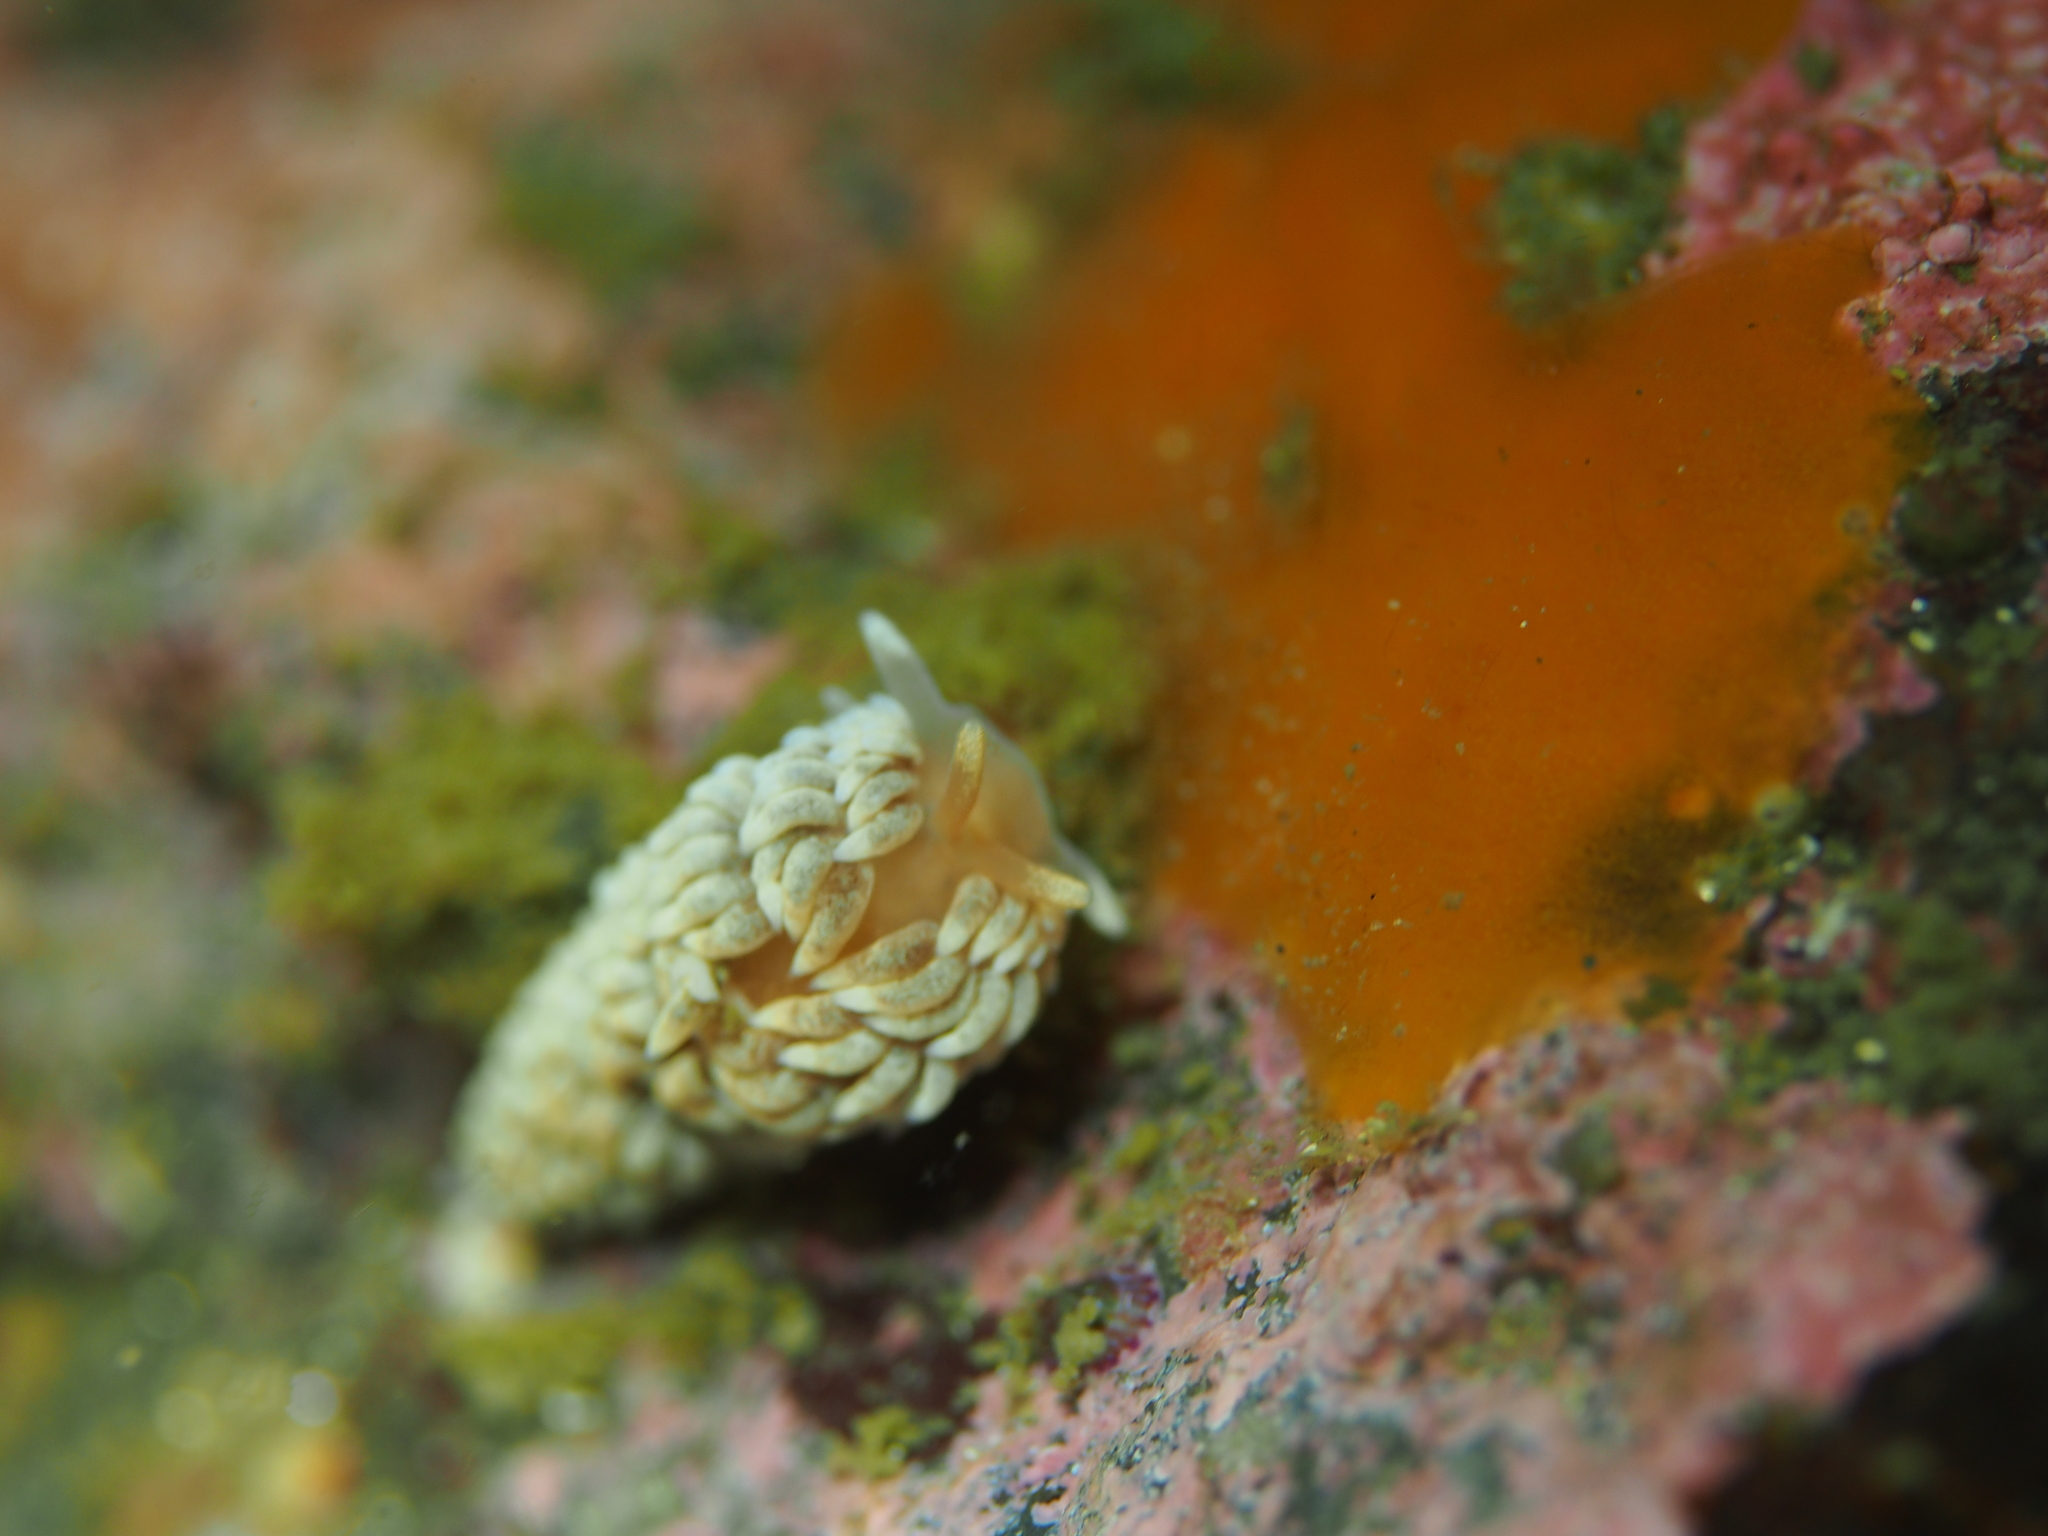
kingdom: Animalia
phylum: Mollusca
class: Gastropoda
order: Nudibranchia
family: Aeolidiidae
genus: Aeolidiella
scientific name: Aeolidiella glauca
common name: Orange-brown aeolid
